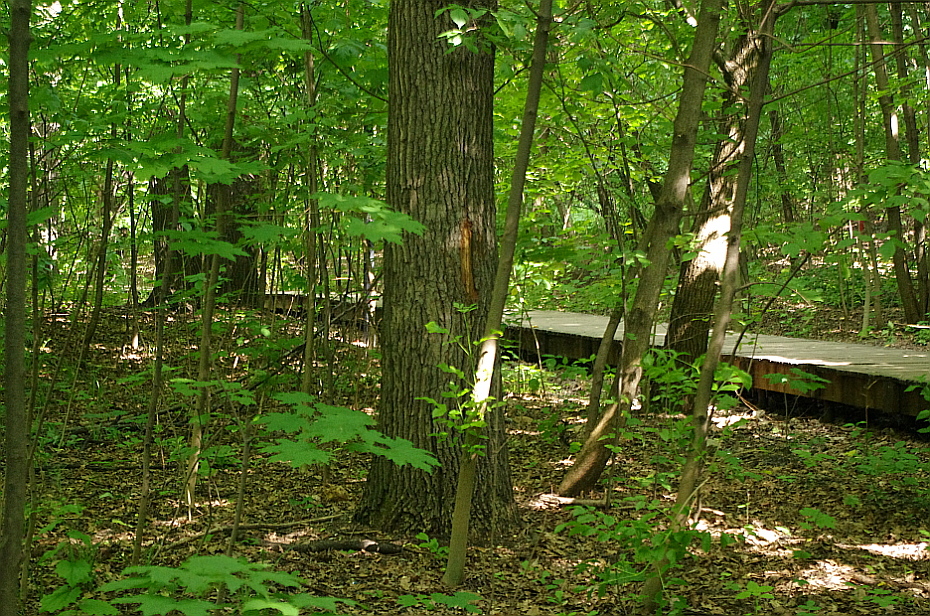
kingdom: Plantae
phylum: Tracheophyta
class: Magnoliopsida
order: Sapindales
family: Sapindaceae
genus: Acer
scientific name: Acer platanoides
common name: Norway maple
